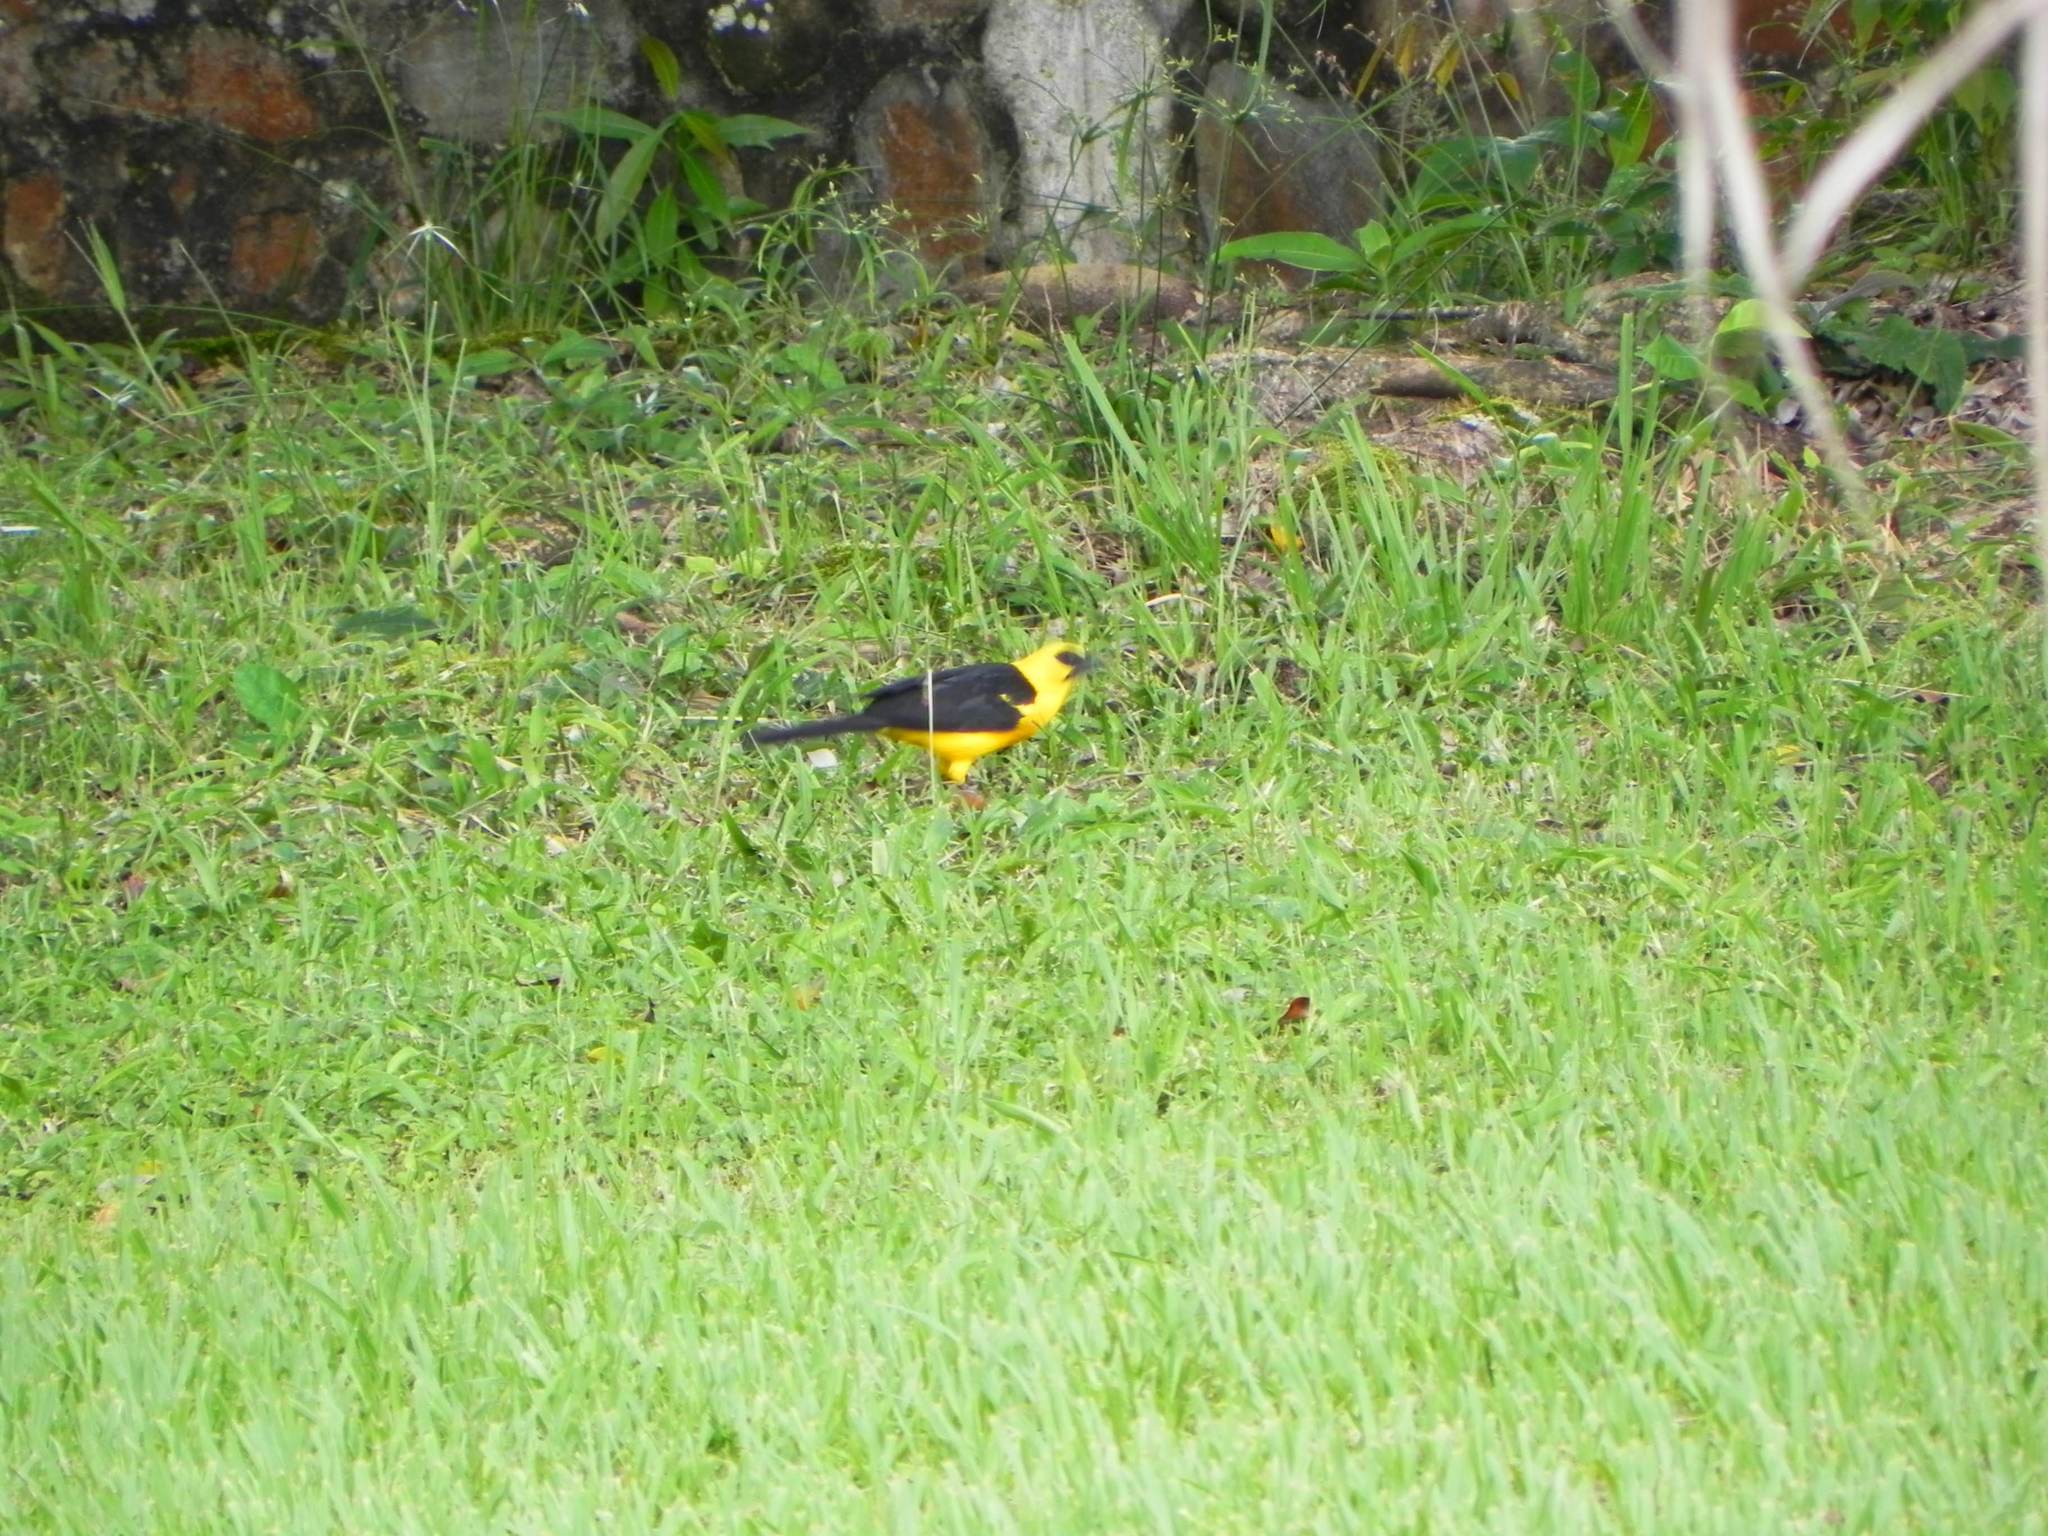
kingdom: Animalia
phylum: Chordata
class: Aves
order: Passeriformes
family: Icteridae
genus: Gymnomystax
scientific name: Gymnomystax mexicanus
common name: Oriole blackbird
